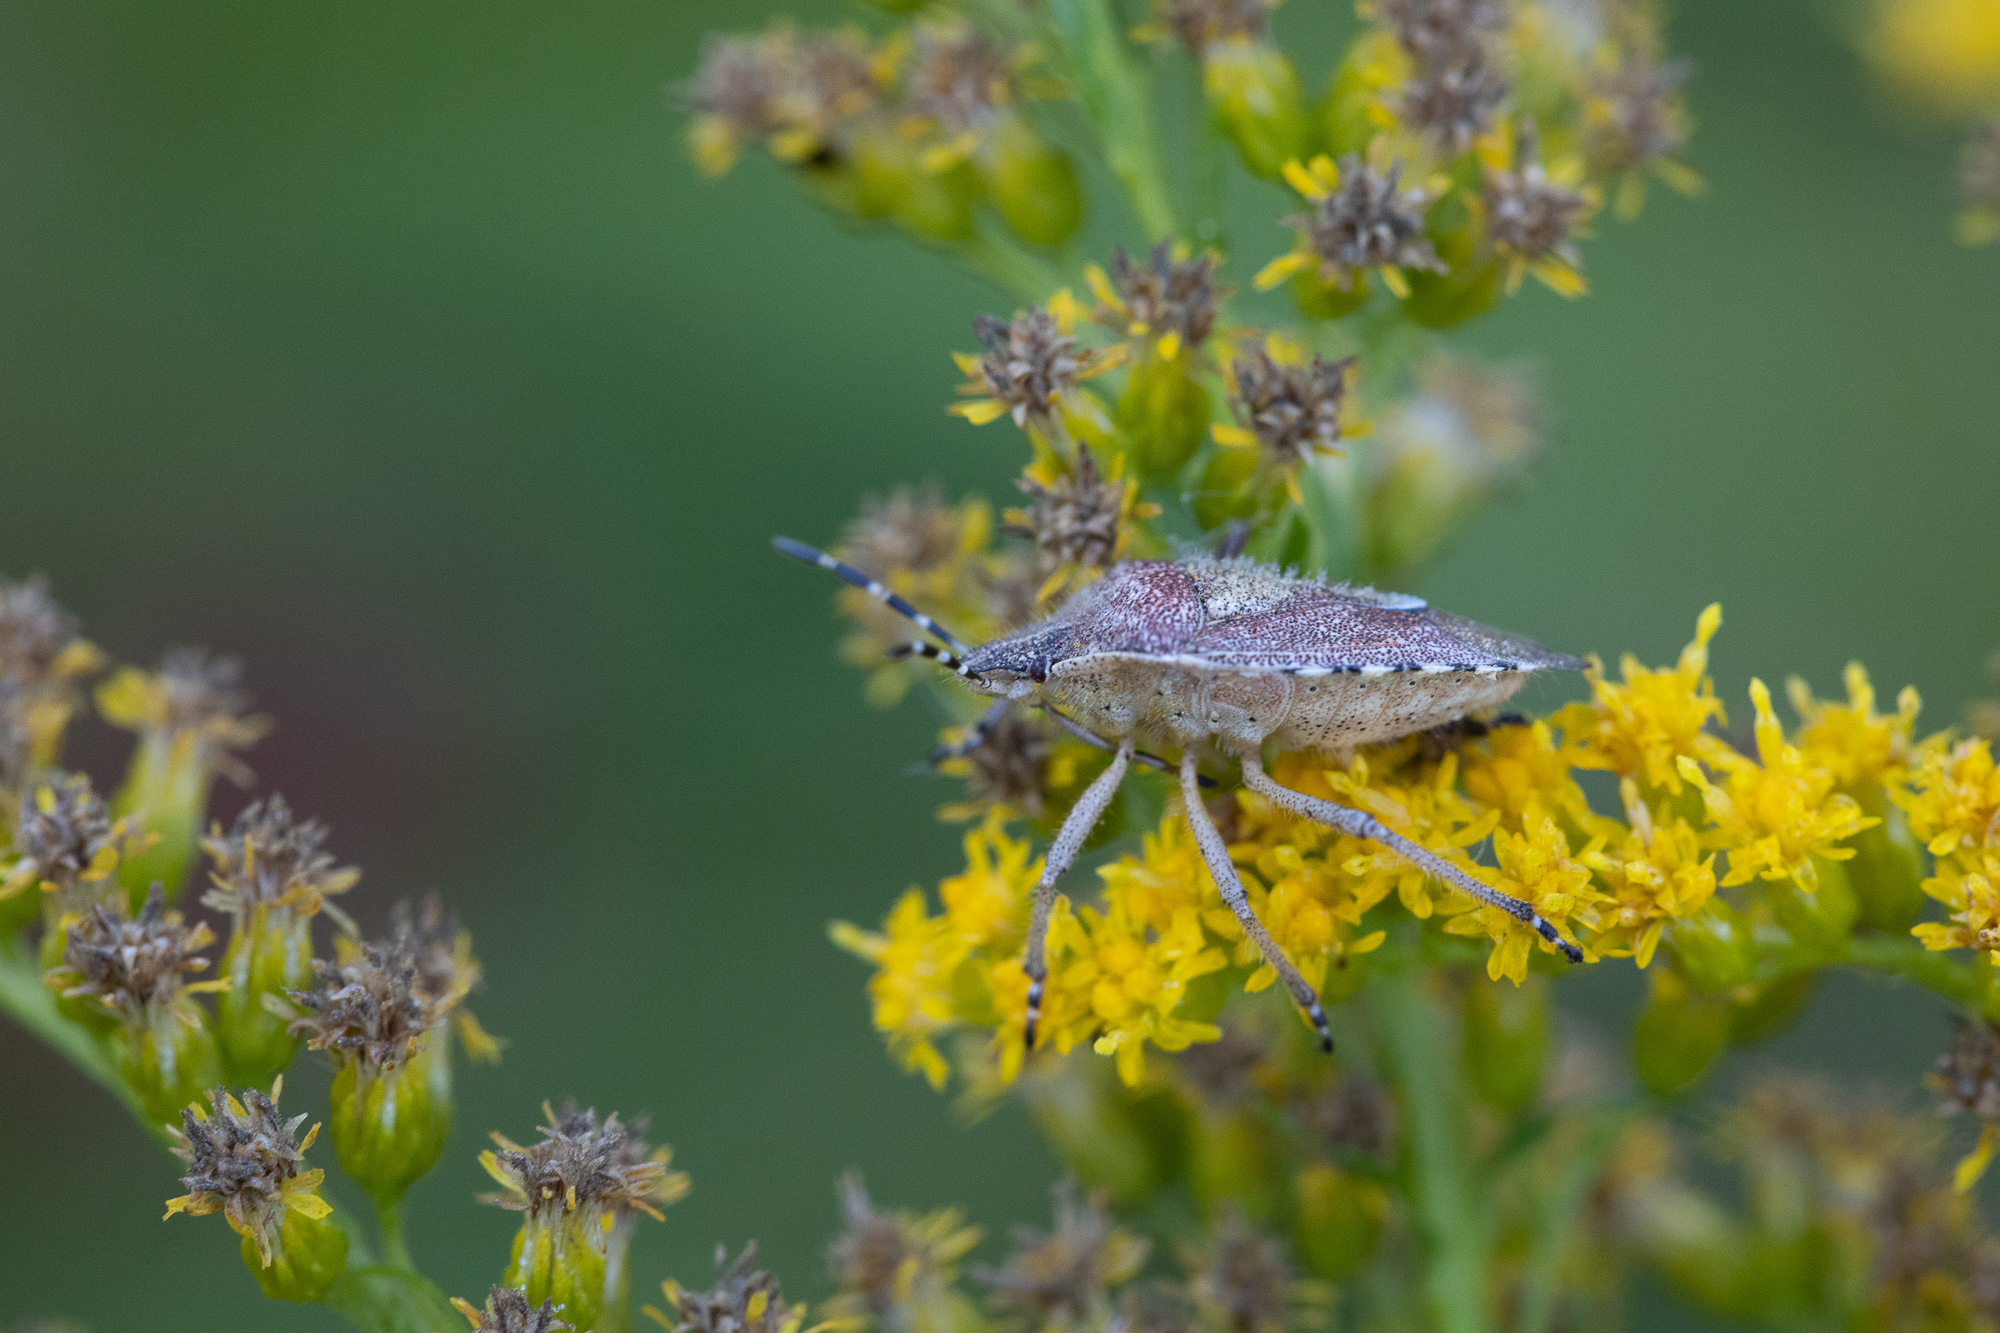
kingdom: Animalia
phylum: Arthropoda
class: Insecta
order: Hemiptera
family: Pentatomidae
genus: Dolycoris
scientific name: Dolycoris baccarum
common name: Sloe bug
